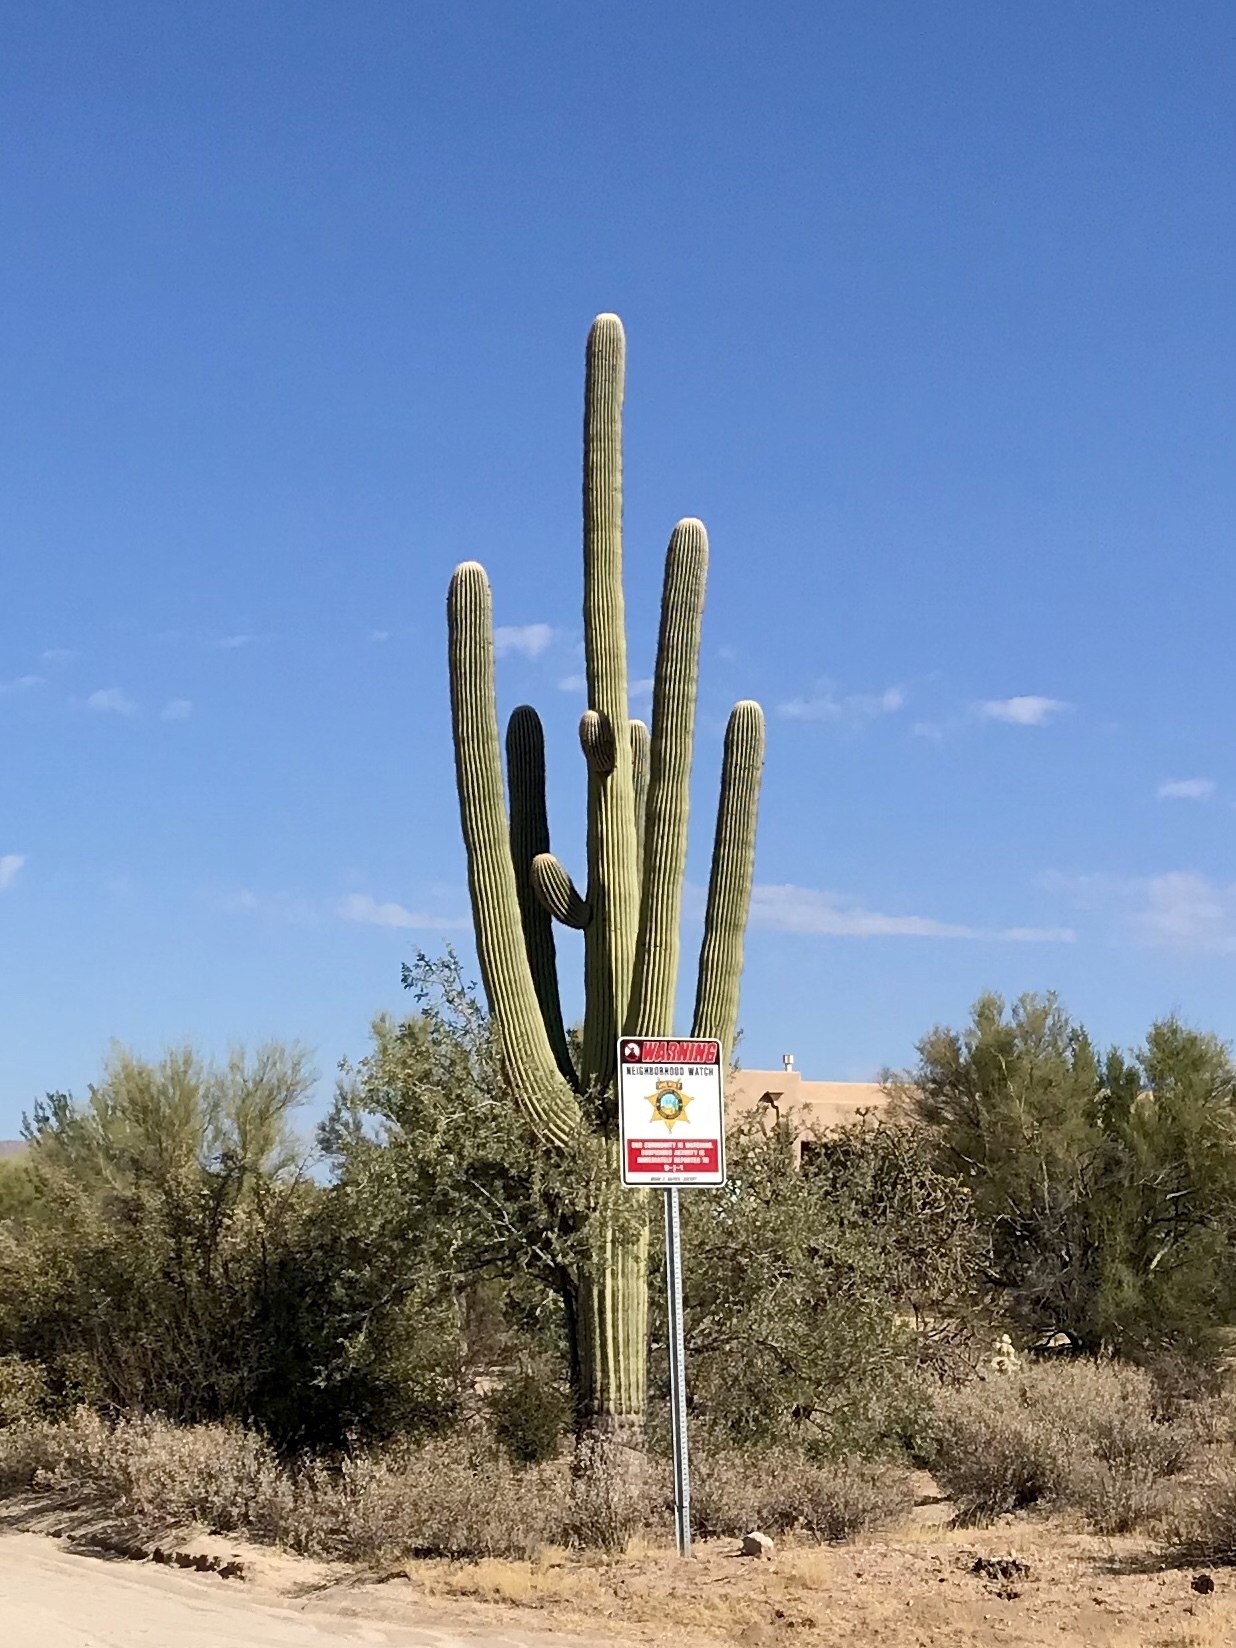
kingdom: Plantae
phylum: Tracheophyta
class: Magnoliopsida
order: Caryophyllales
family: Cactaceae
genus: Carnegiea
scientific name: Carnegiea gigantea
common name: Saguaro
